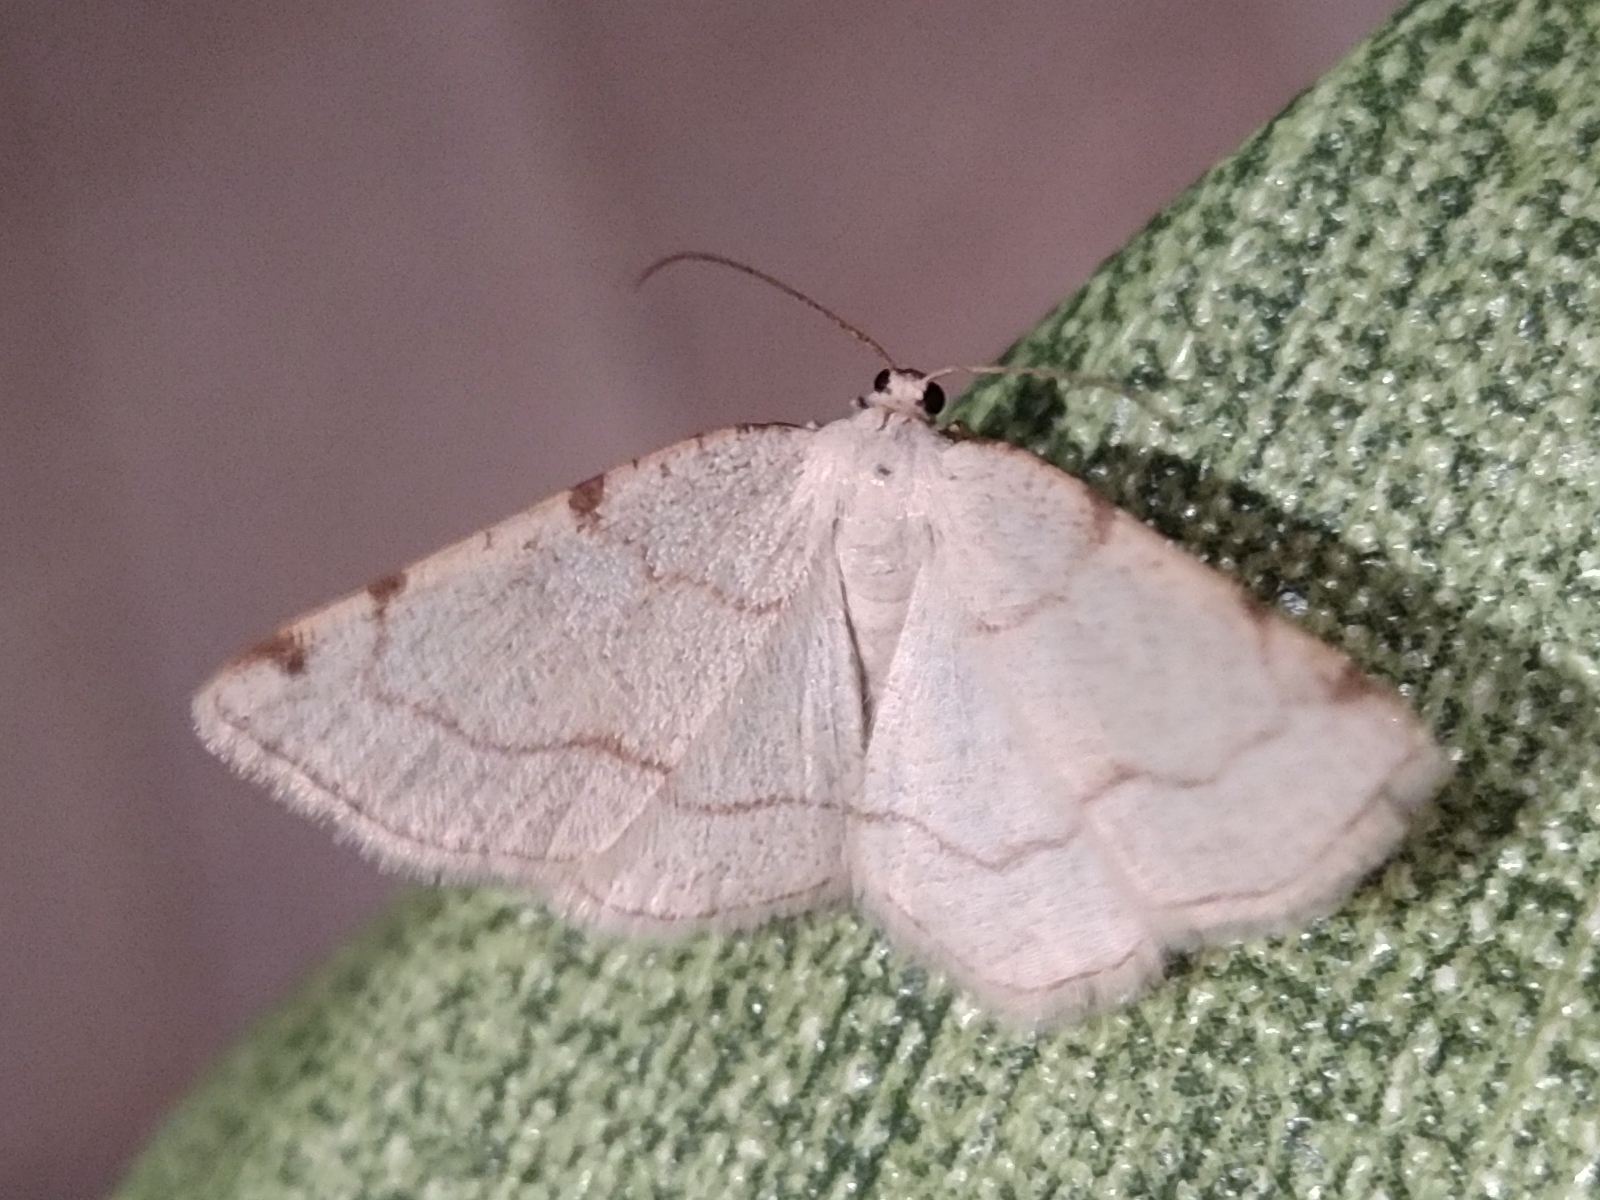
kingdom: Animalia
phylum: Arthropoda
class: Insecta
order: Lepidoptera
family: Geometridae
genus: Stegania
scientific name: Stegania trimaculata
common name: Dorset cream wave
